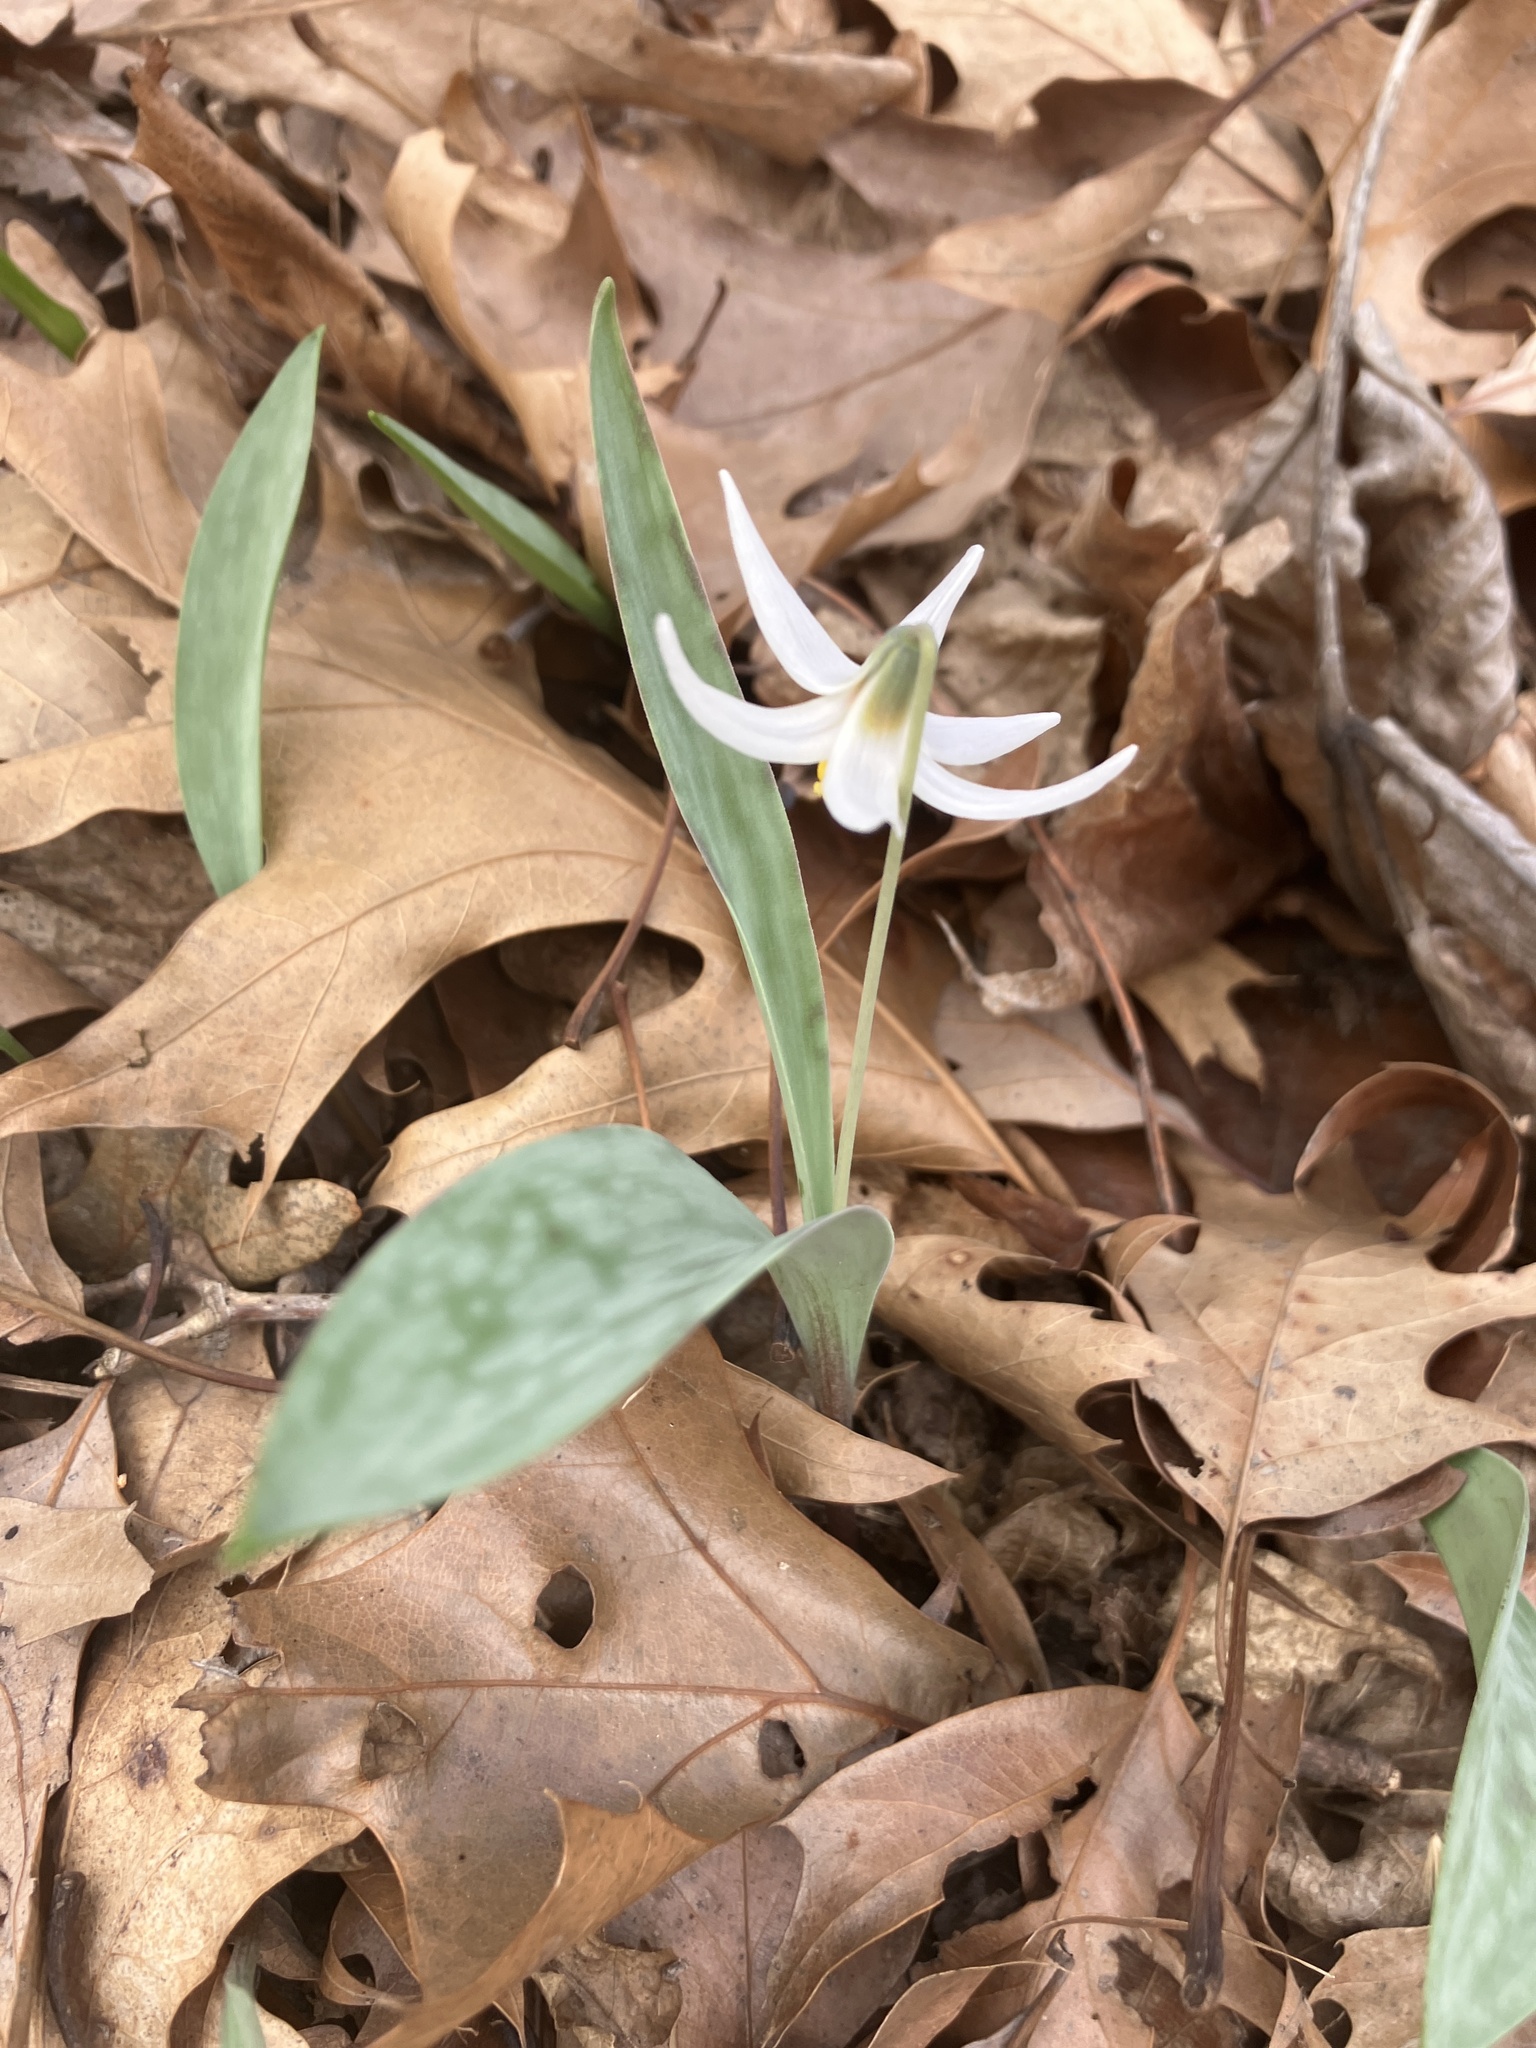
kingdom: Plantae
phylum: Tracheophyta
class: Liliopsida
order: Liliales
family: Liliaceae
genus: Erythronium
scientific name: Erythronium albidum
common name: White trout-lily
